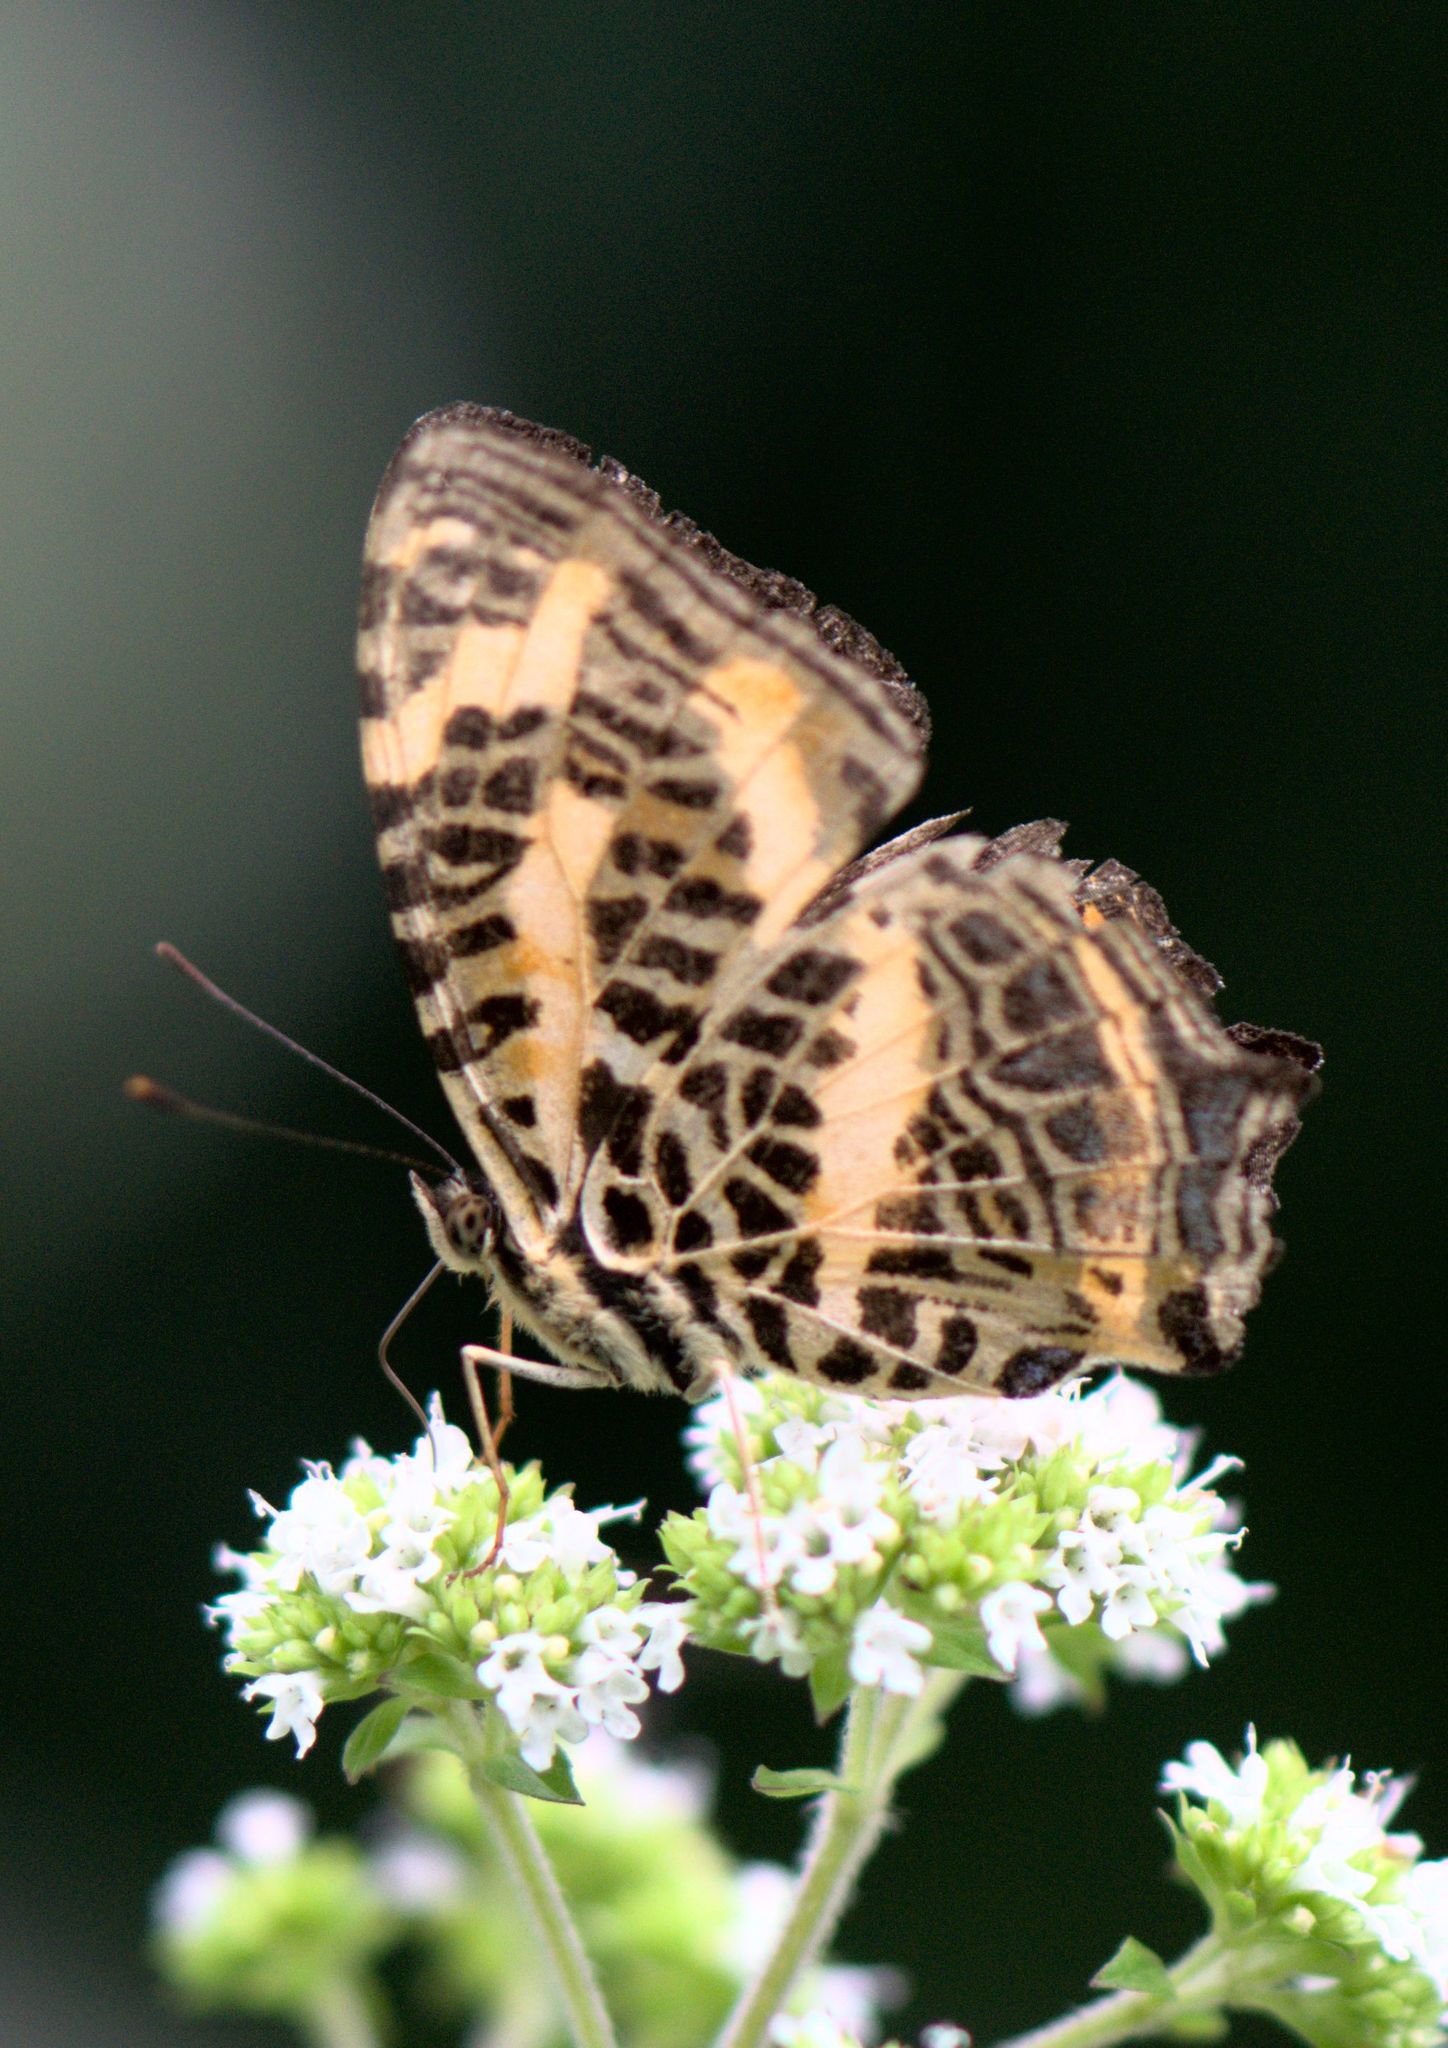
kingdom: Animalia
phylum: Arthropoda
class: Insecta
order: Lepidoptera
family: Nymphalidae
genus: Symbrenthia
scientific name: Symbrenthia niphanda
